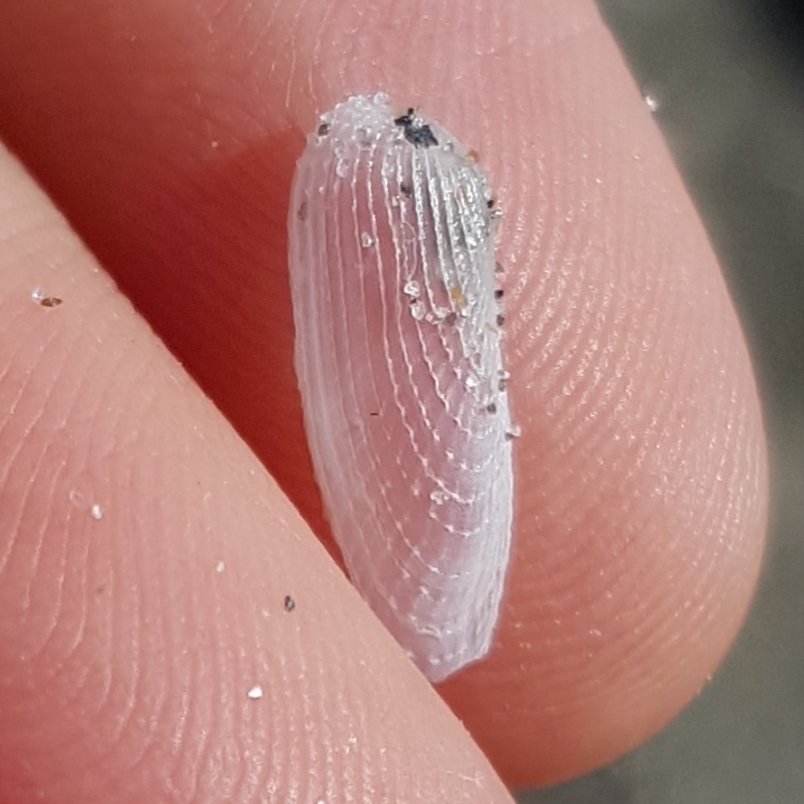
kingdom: Animalia
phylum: Mollusca
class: Bivalvia
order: Myida
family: Pholadidae
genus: Barnea
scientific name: Barnea candida
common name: White piddock
